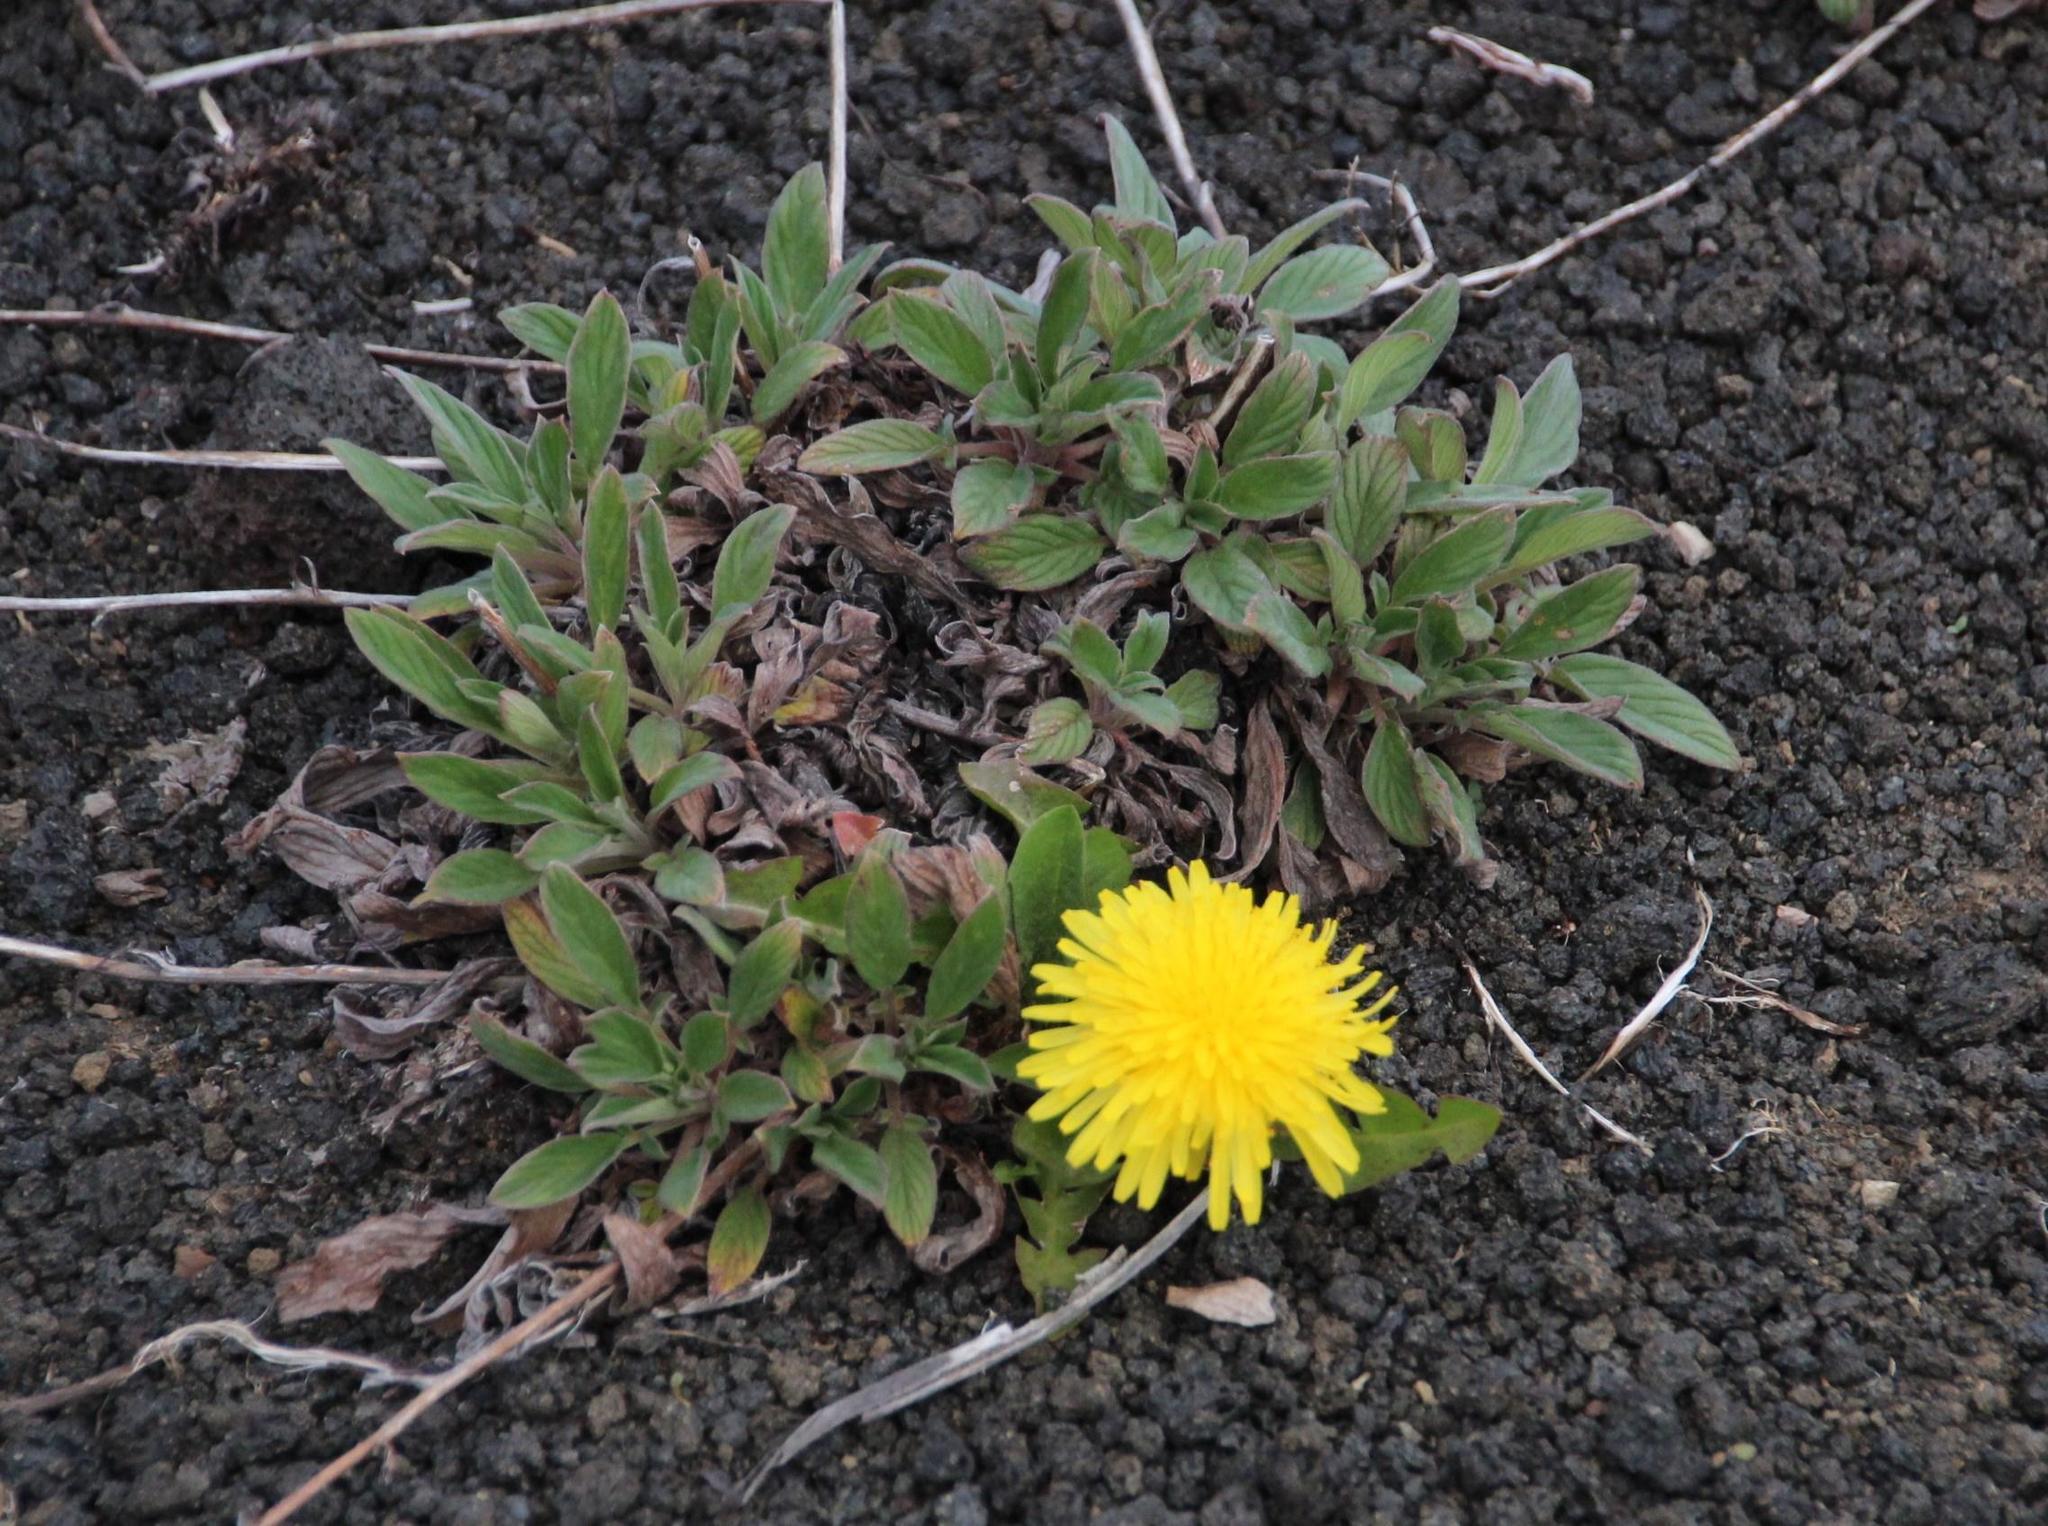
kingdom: Plantae
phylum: Tracheophyta
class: Magnoliopsida
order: Asterales
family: Asteraceae
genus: Taraxacum
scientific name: Taraxacum officinale
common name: Common dandelion
